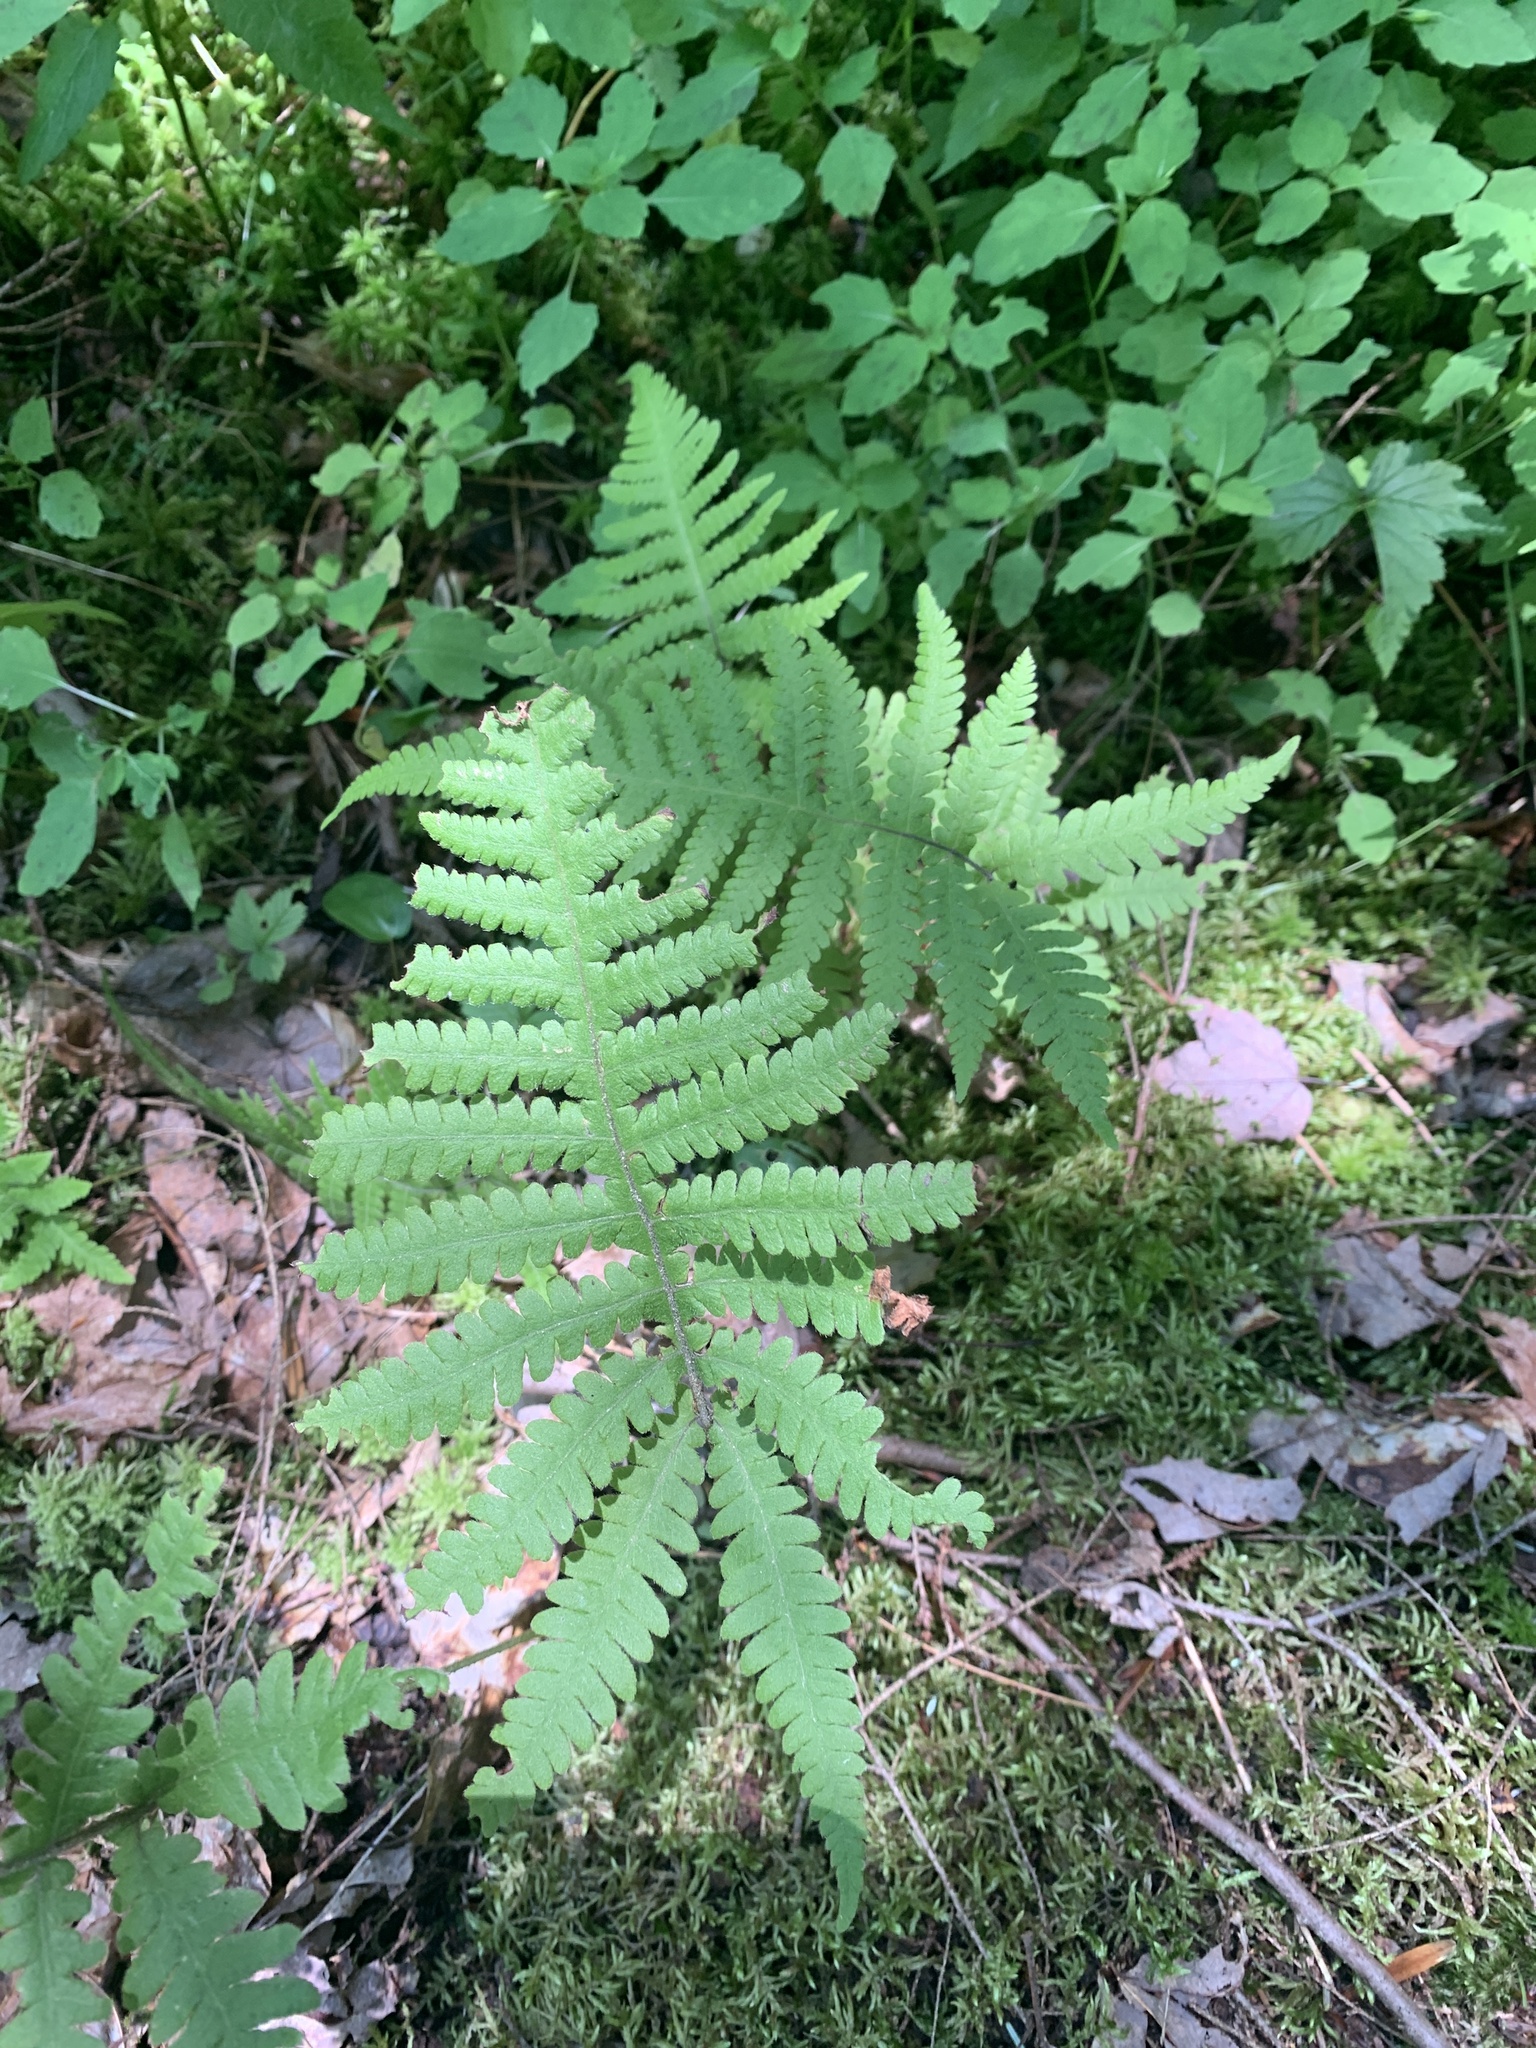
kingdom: Plantae
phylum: Tracheophyta
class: Polypodiopsida
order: Polypodiales
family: Thelypteridaceae
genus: Phegopteris
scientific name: Phegopteris connectilis
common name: Beech fern
